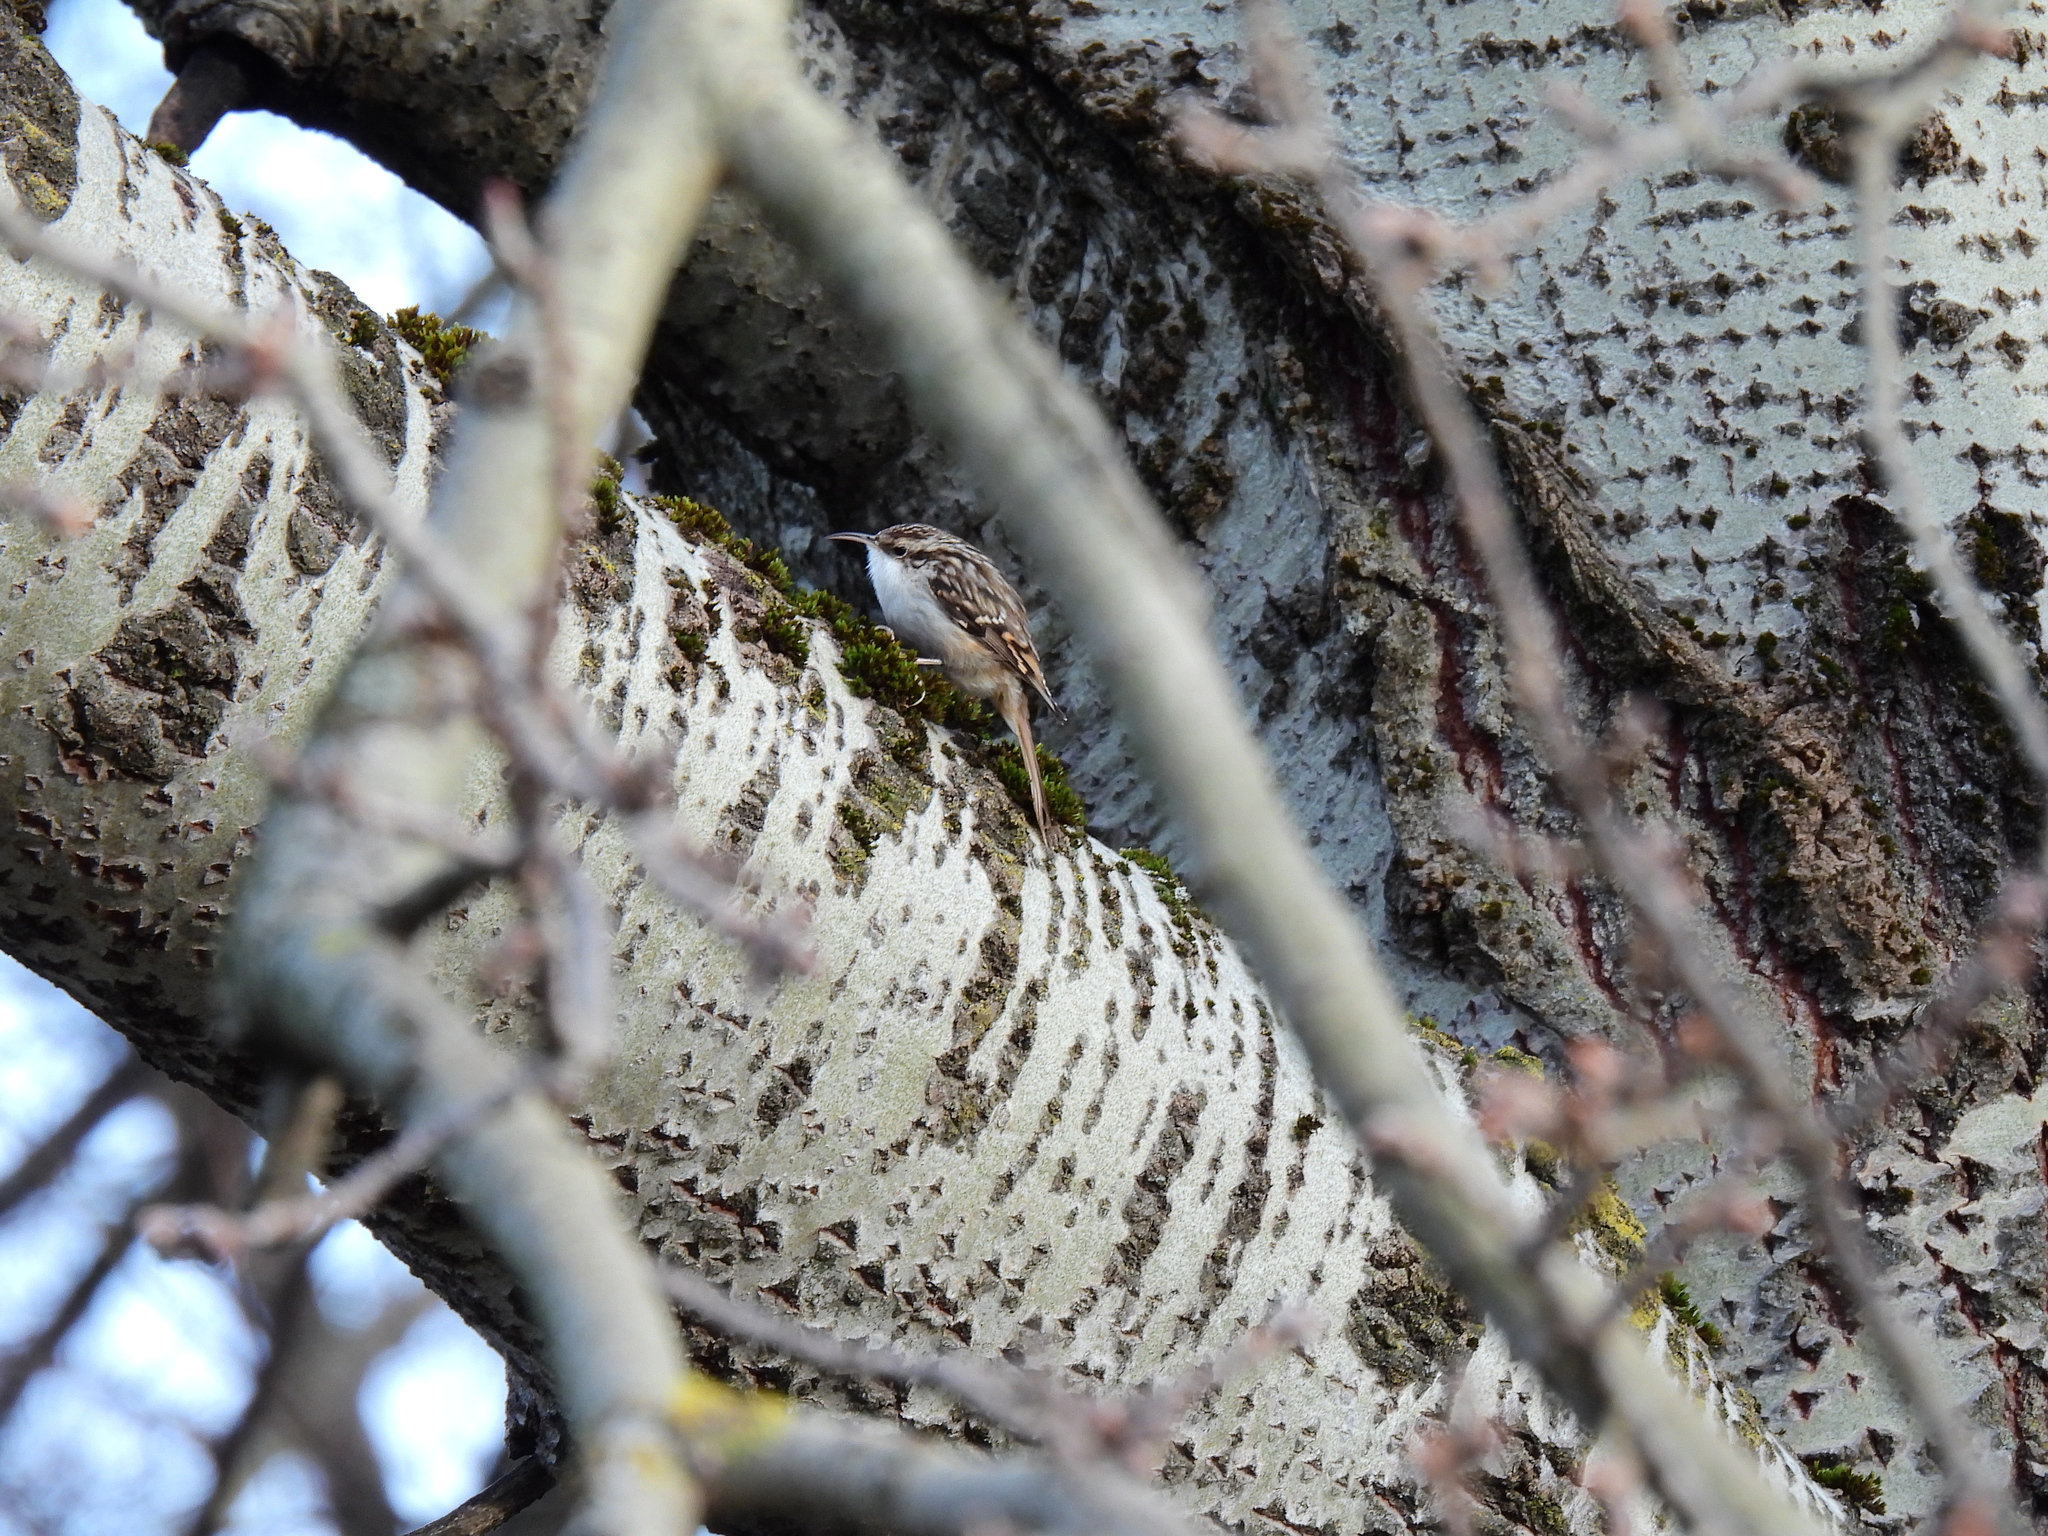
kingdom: Animalia
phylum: Chordata
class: Aves
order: Passeriformes
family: Certhiidae
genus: Certhia
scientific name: Certhia brachydactyla
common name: Short-toed treecreeper
